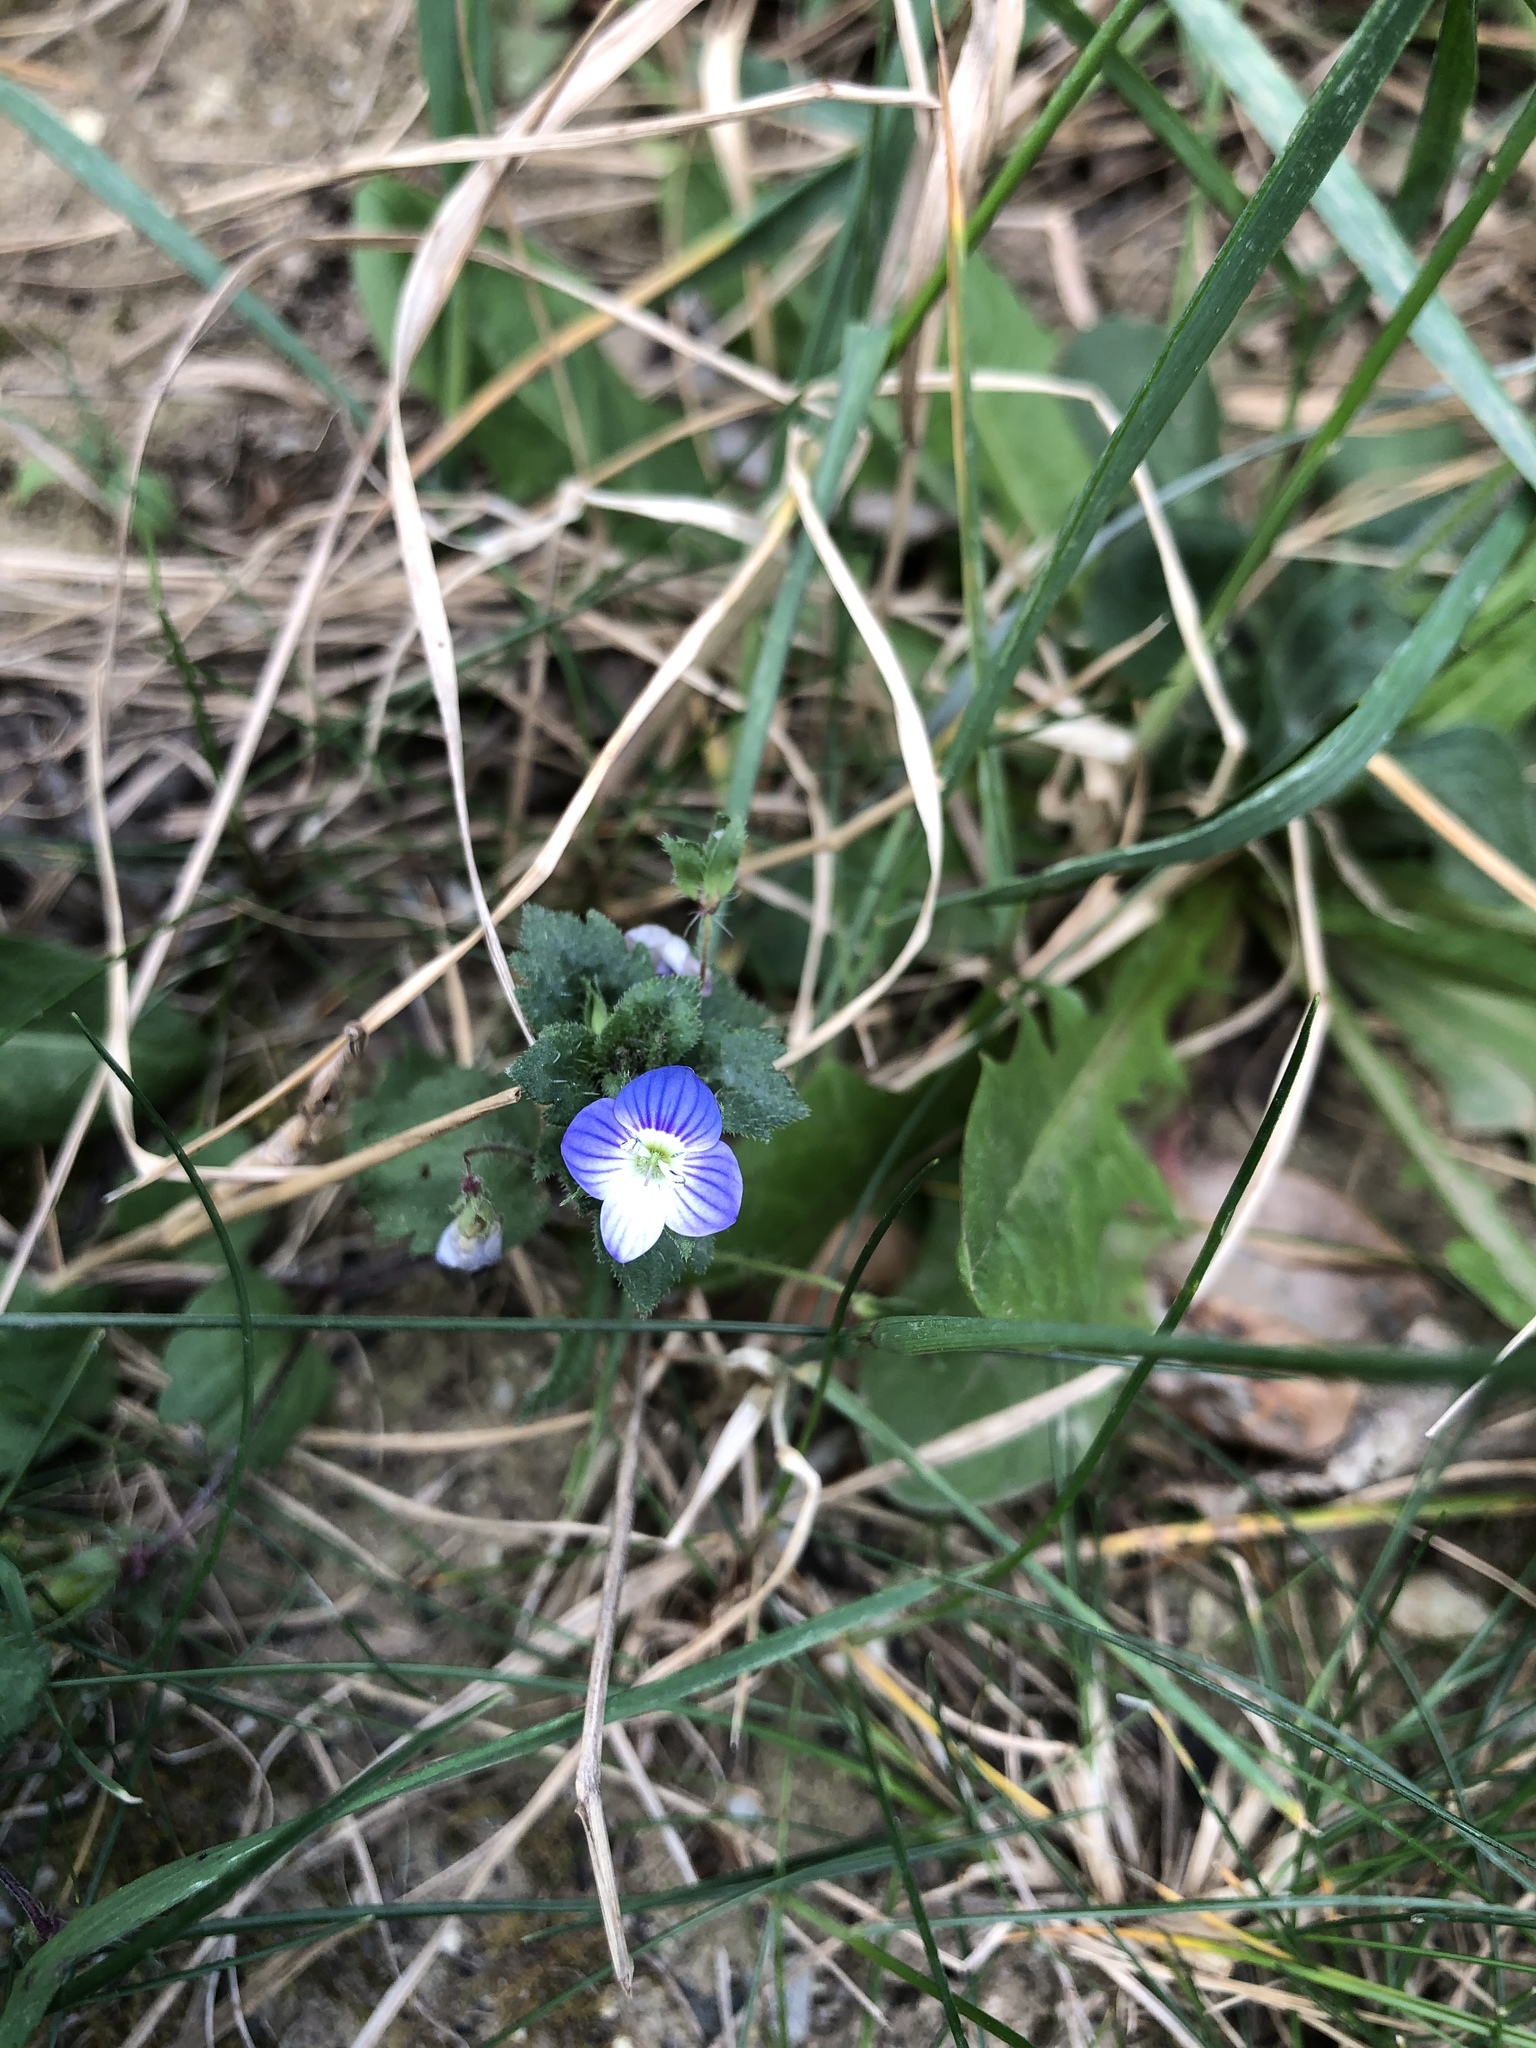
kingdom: Plantae
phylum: Tracheophyta
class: Magnoliopsida
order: Lamiales
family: Plantaginaceae
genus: Veronica
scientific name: Veronica persica
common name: Common field-speedwell
